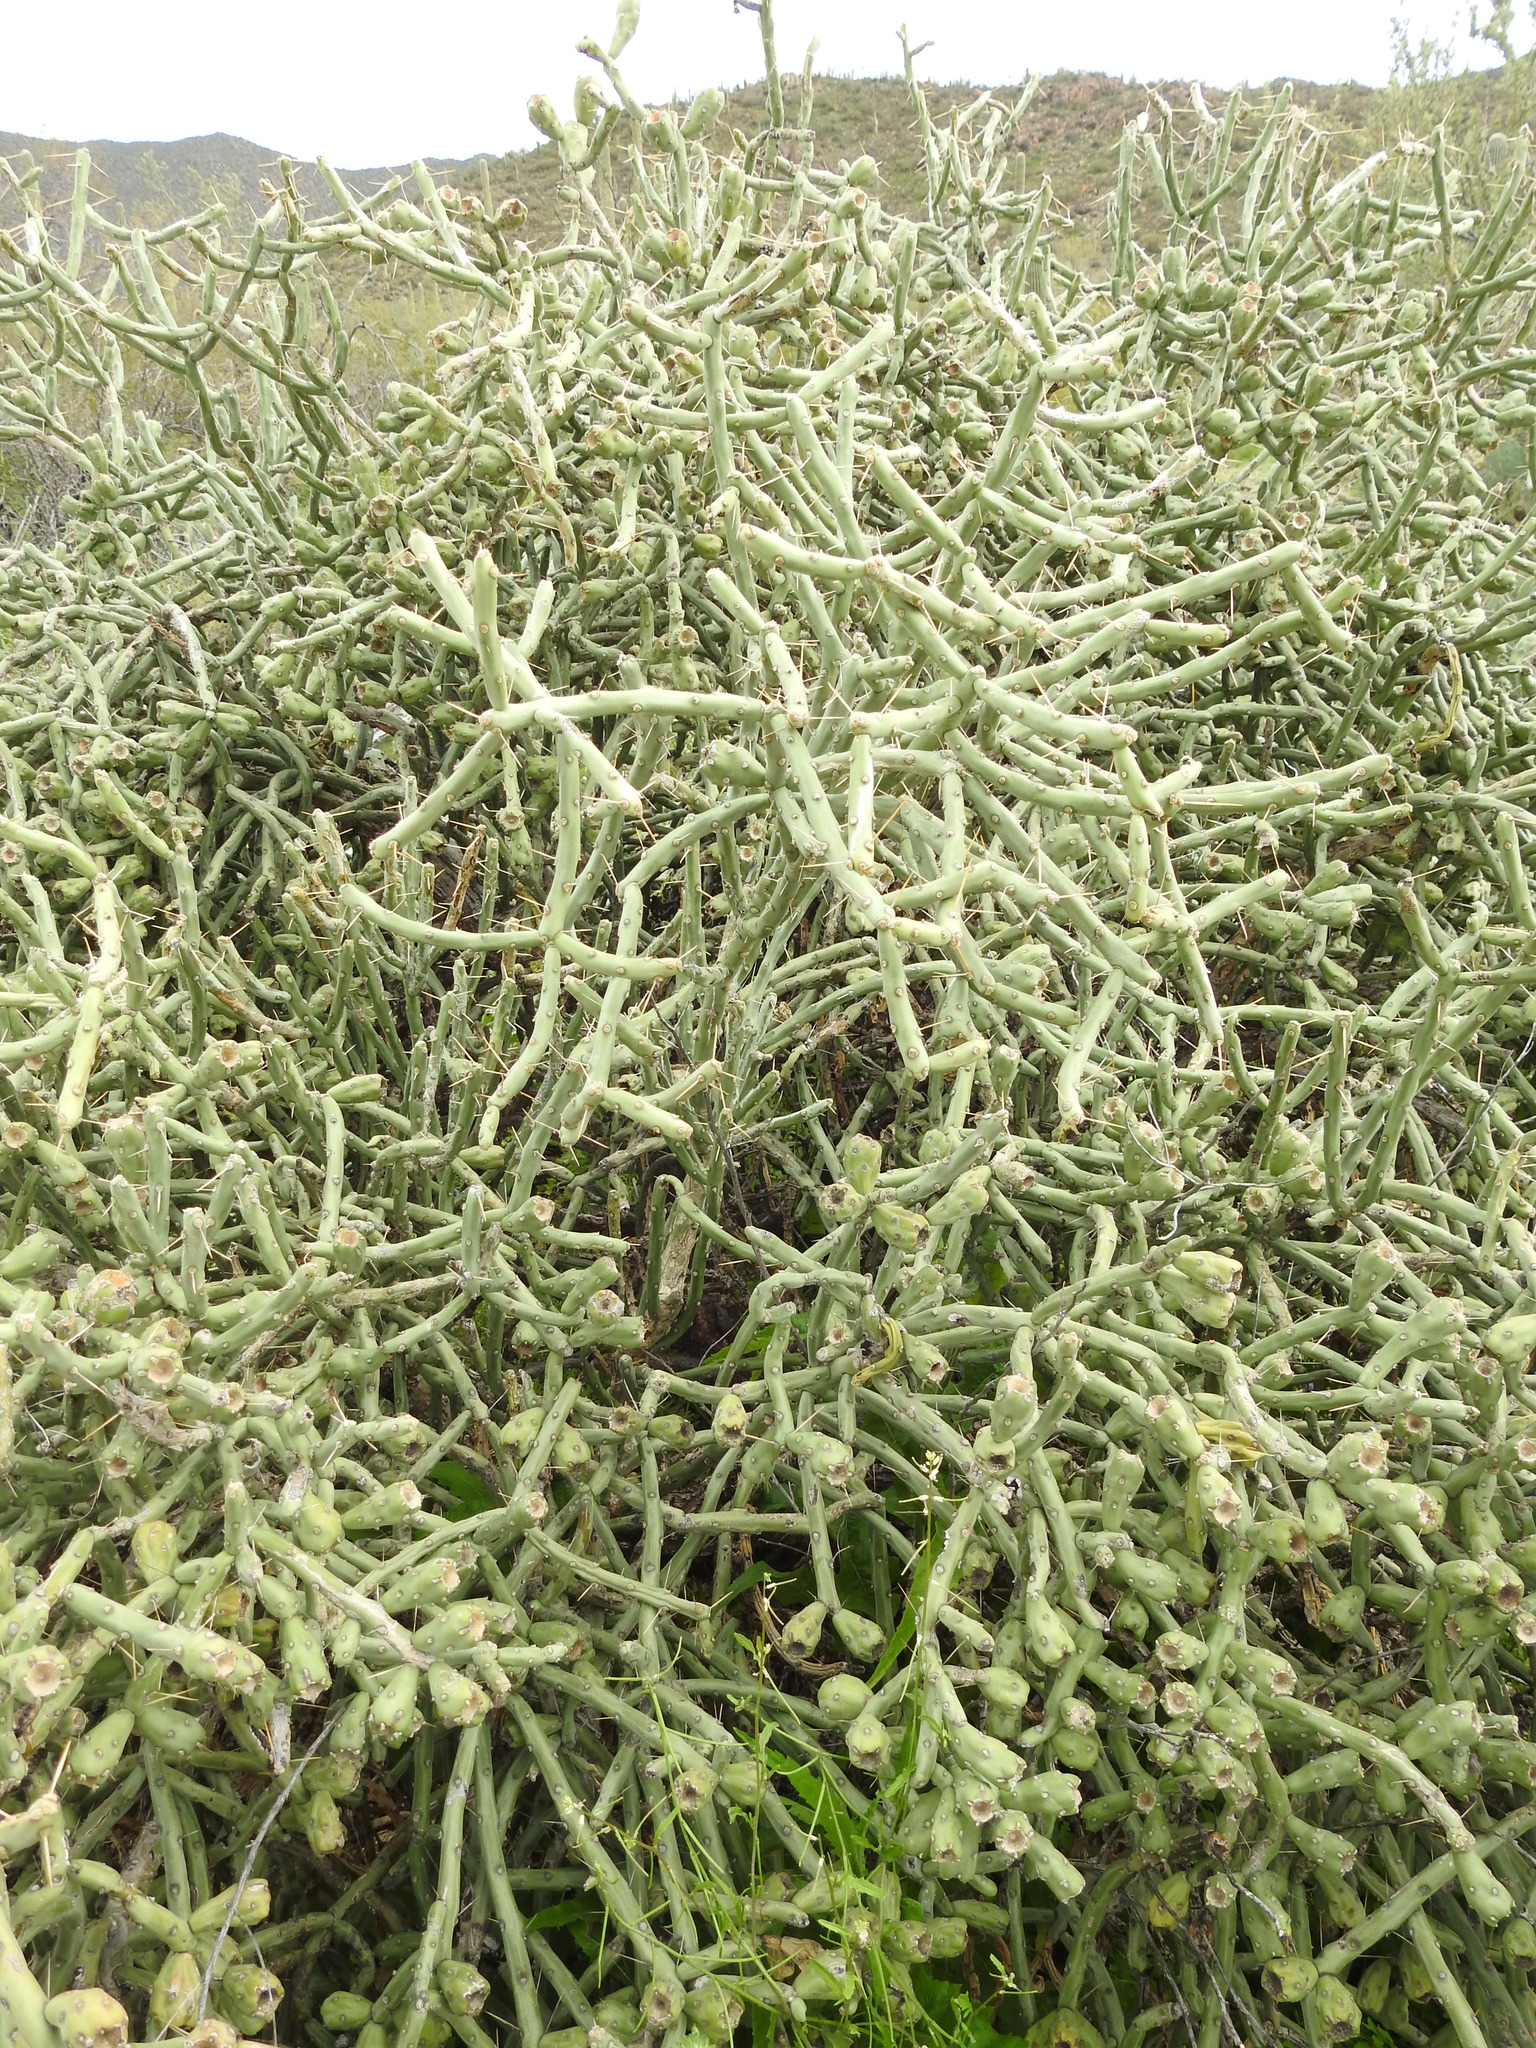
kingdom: Plantae
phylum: Tracheophyta
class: Magnoliopsida
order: Caryophyllales
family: Cactaceae
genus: Cylindropuntia
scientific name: Cylindropuntia arbuscula
